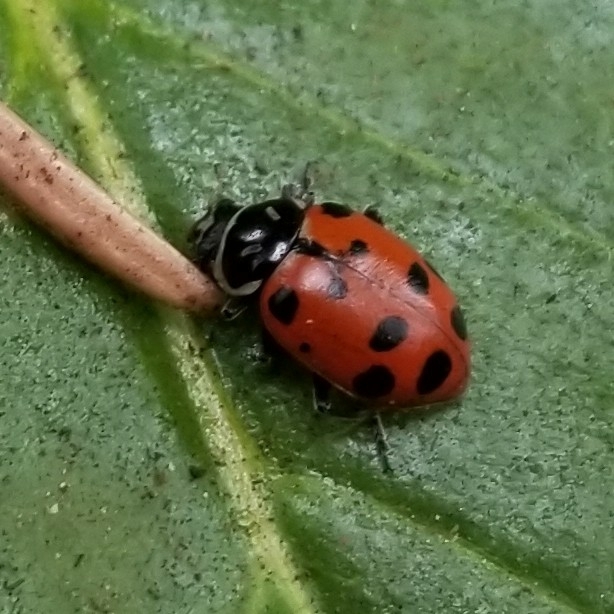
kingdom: Animalia
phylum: Arthropoda
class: Insecta
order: Coleoptera
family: Coccinellidae
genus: Hippodamia
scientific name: Hippodamia convergens
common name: Convergent lady beetle
